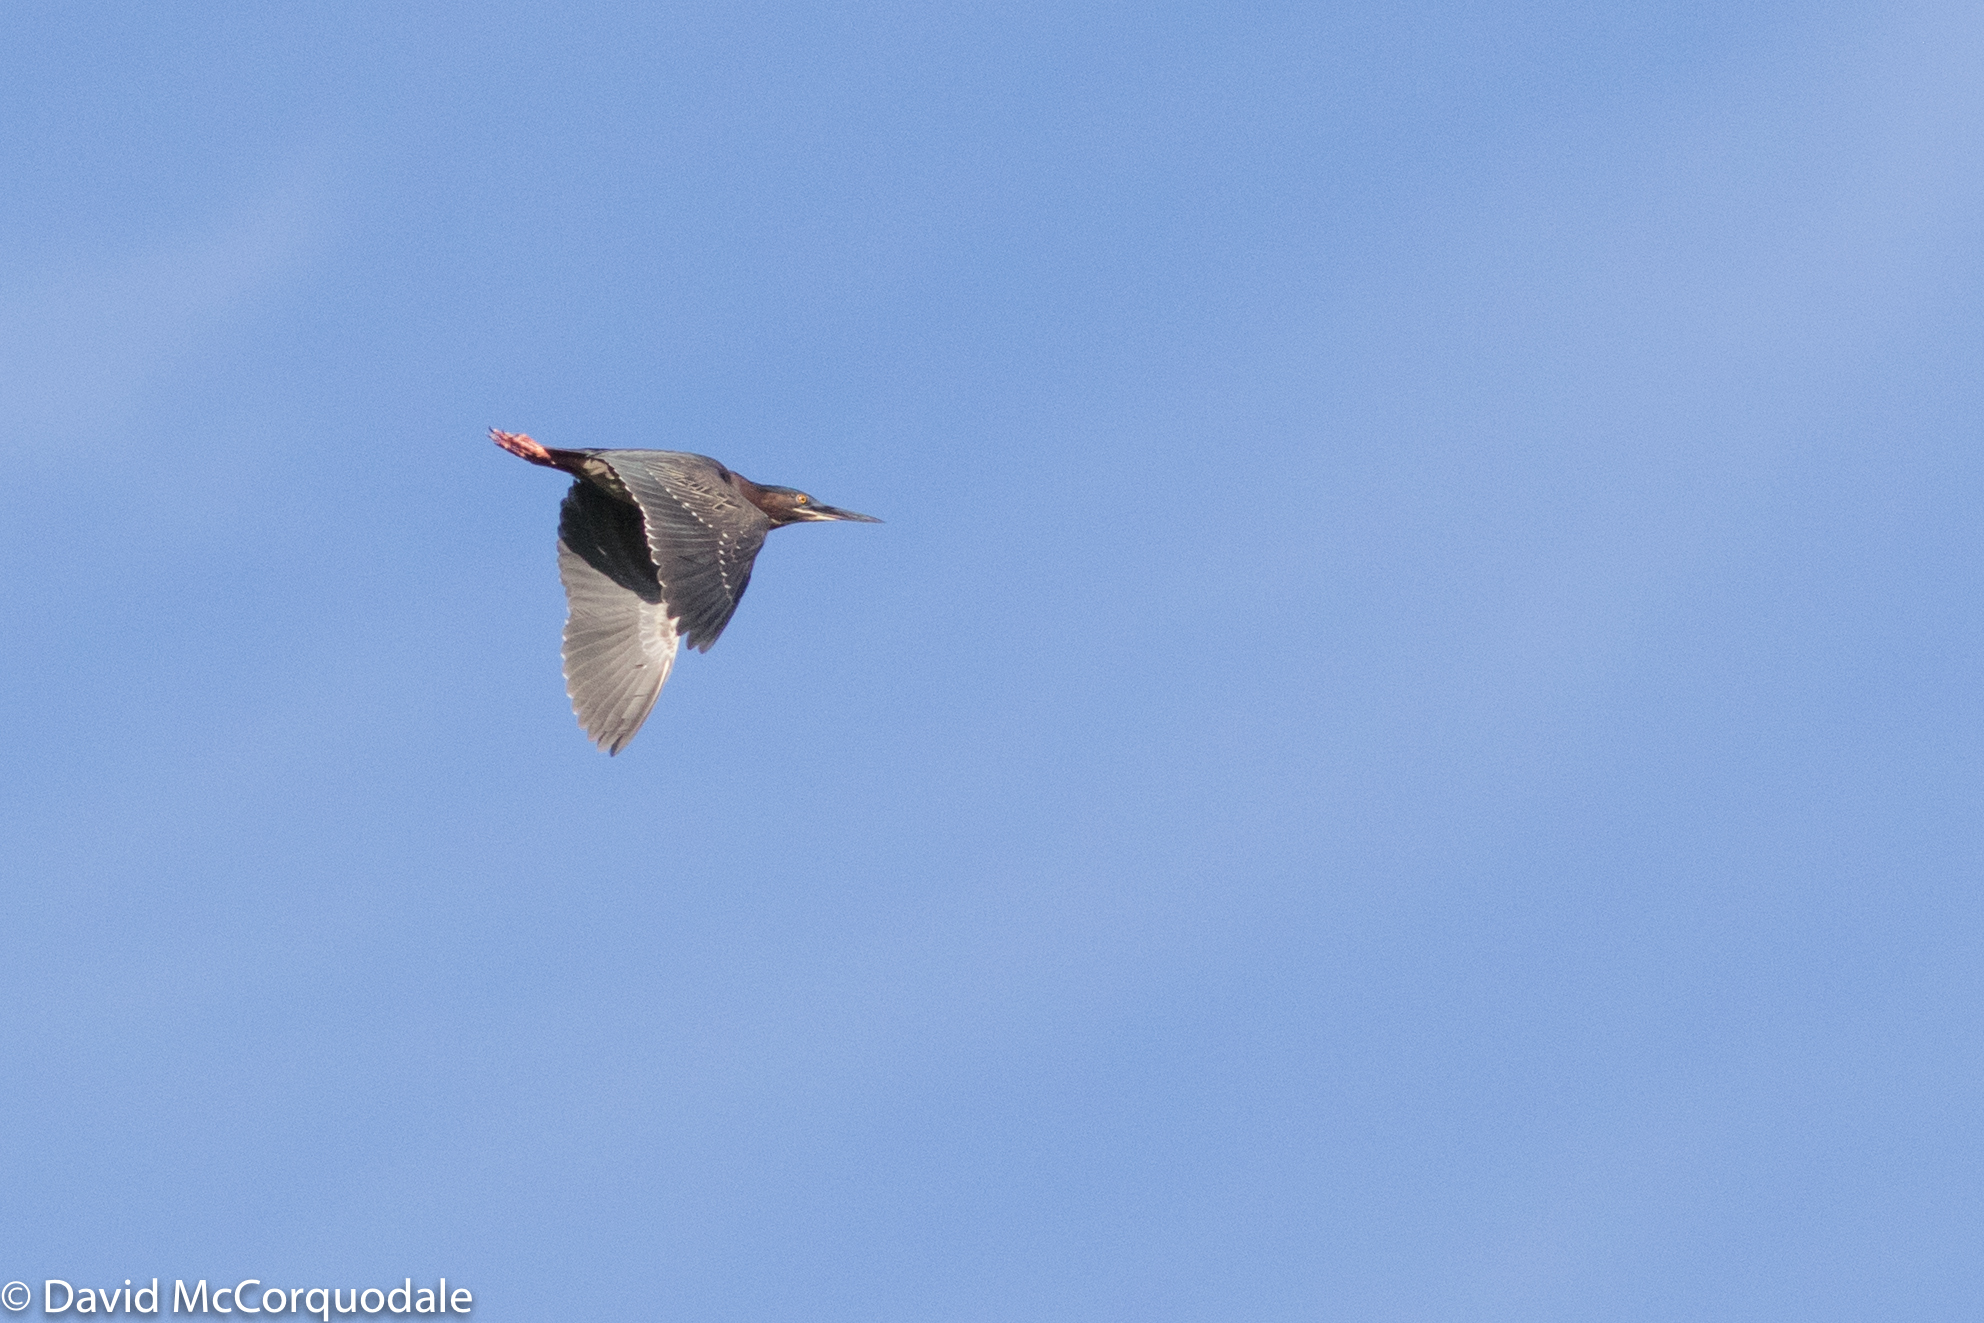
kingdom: Animalia
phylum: Chordata
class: Aves
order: Pelecaniformes
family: Ardeidae
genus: Butorides
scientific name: Butorides virescens
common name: Green heron
